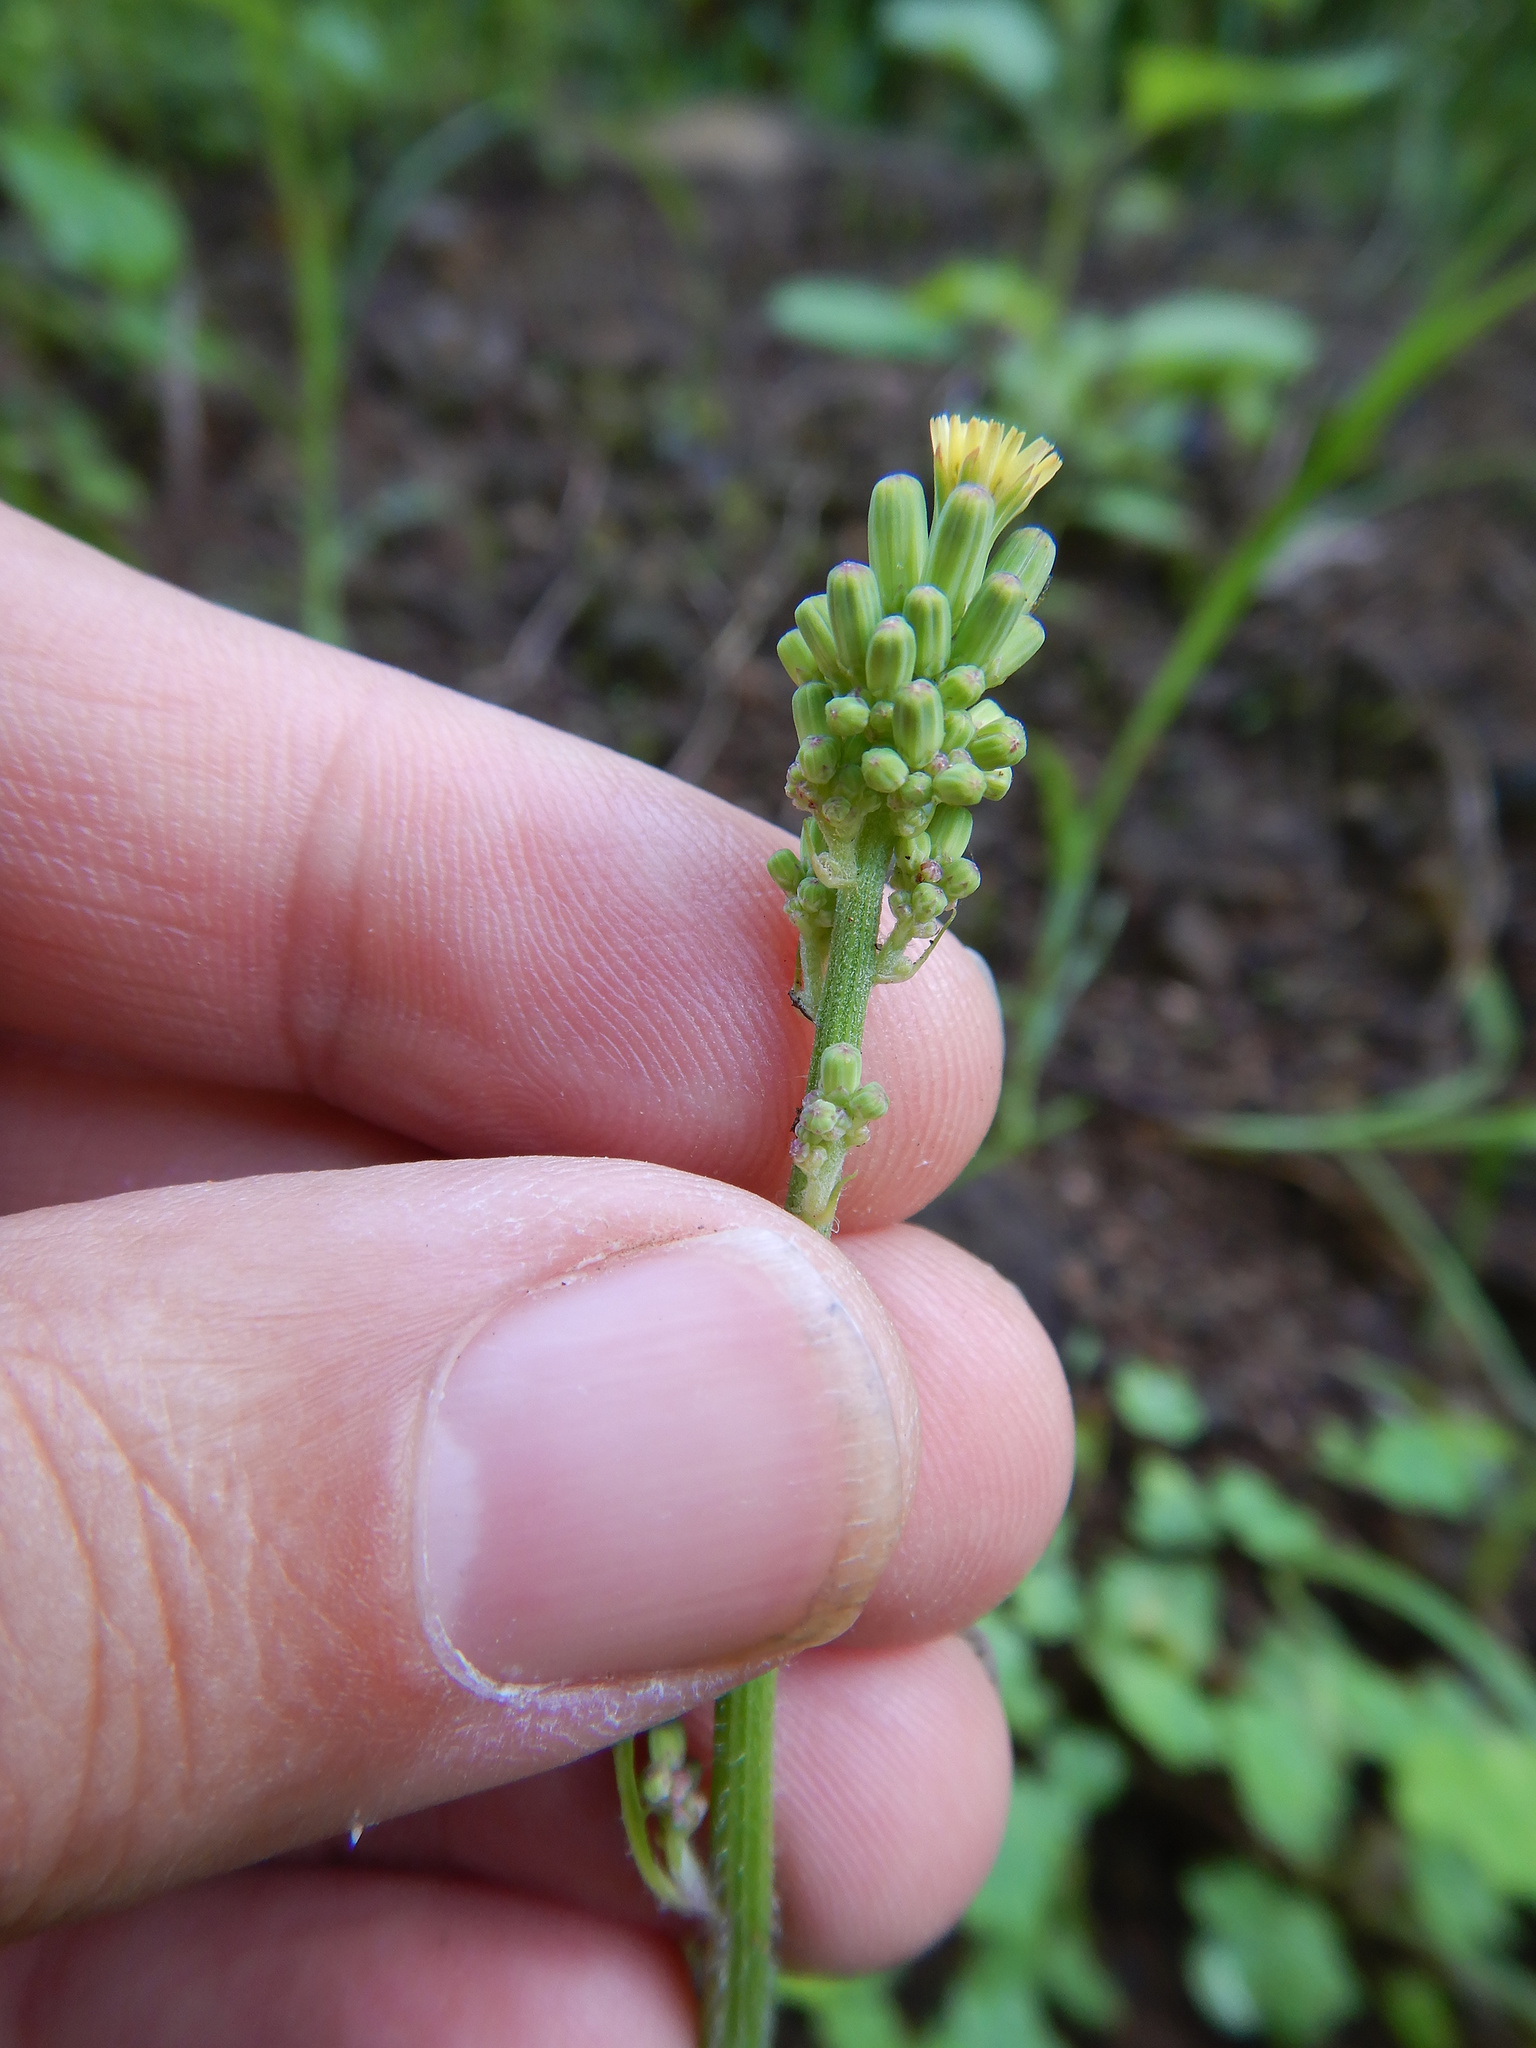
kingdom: Plantae
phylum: Tracheophyta
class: Magnoliopsida
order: Asterales
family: Asteraceae
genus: Youngia
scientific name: Youngia japonica
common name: Oriental false hawksbeard
